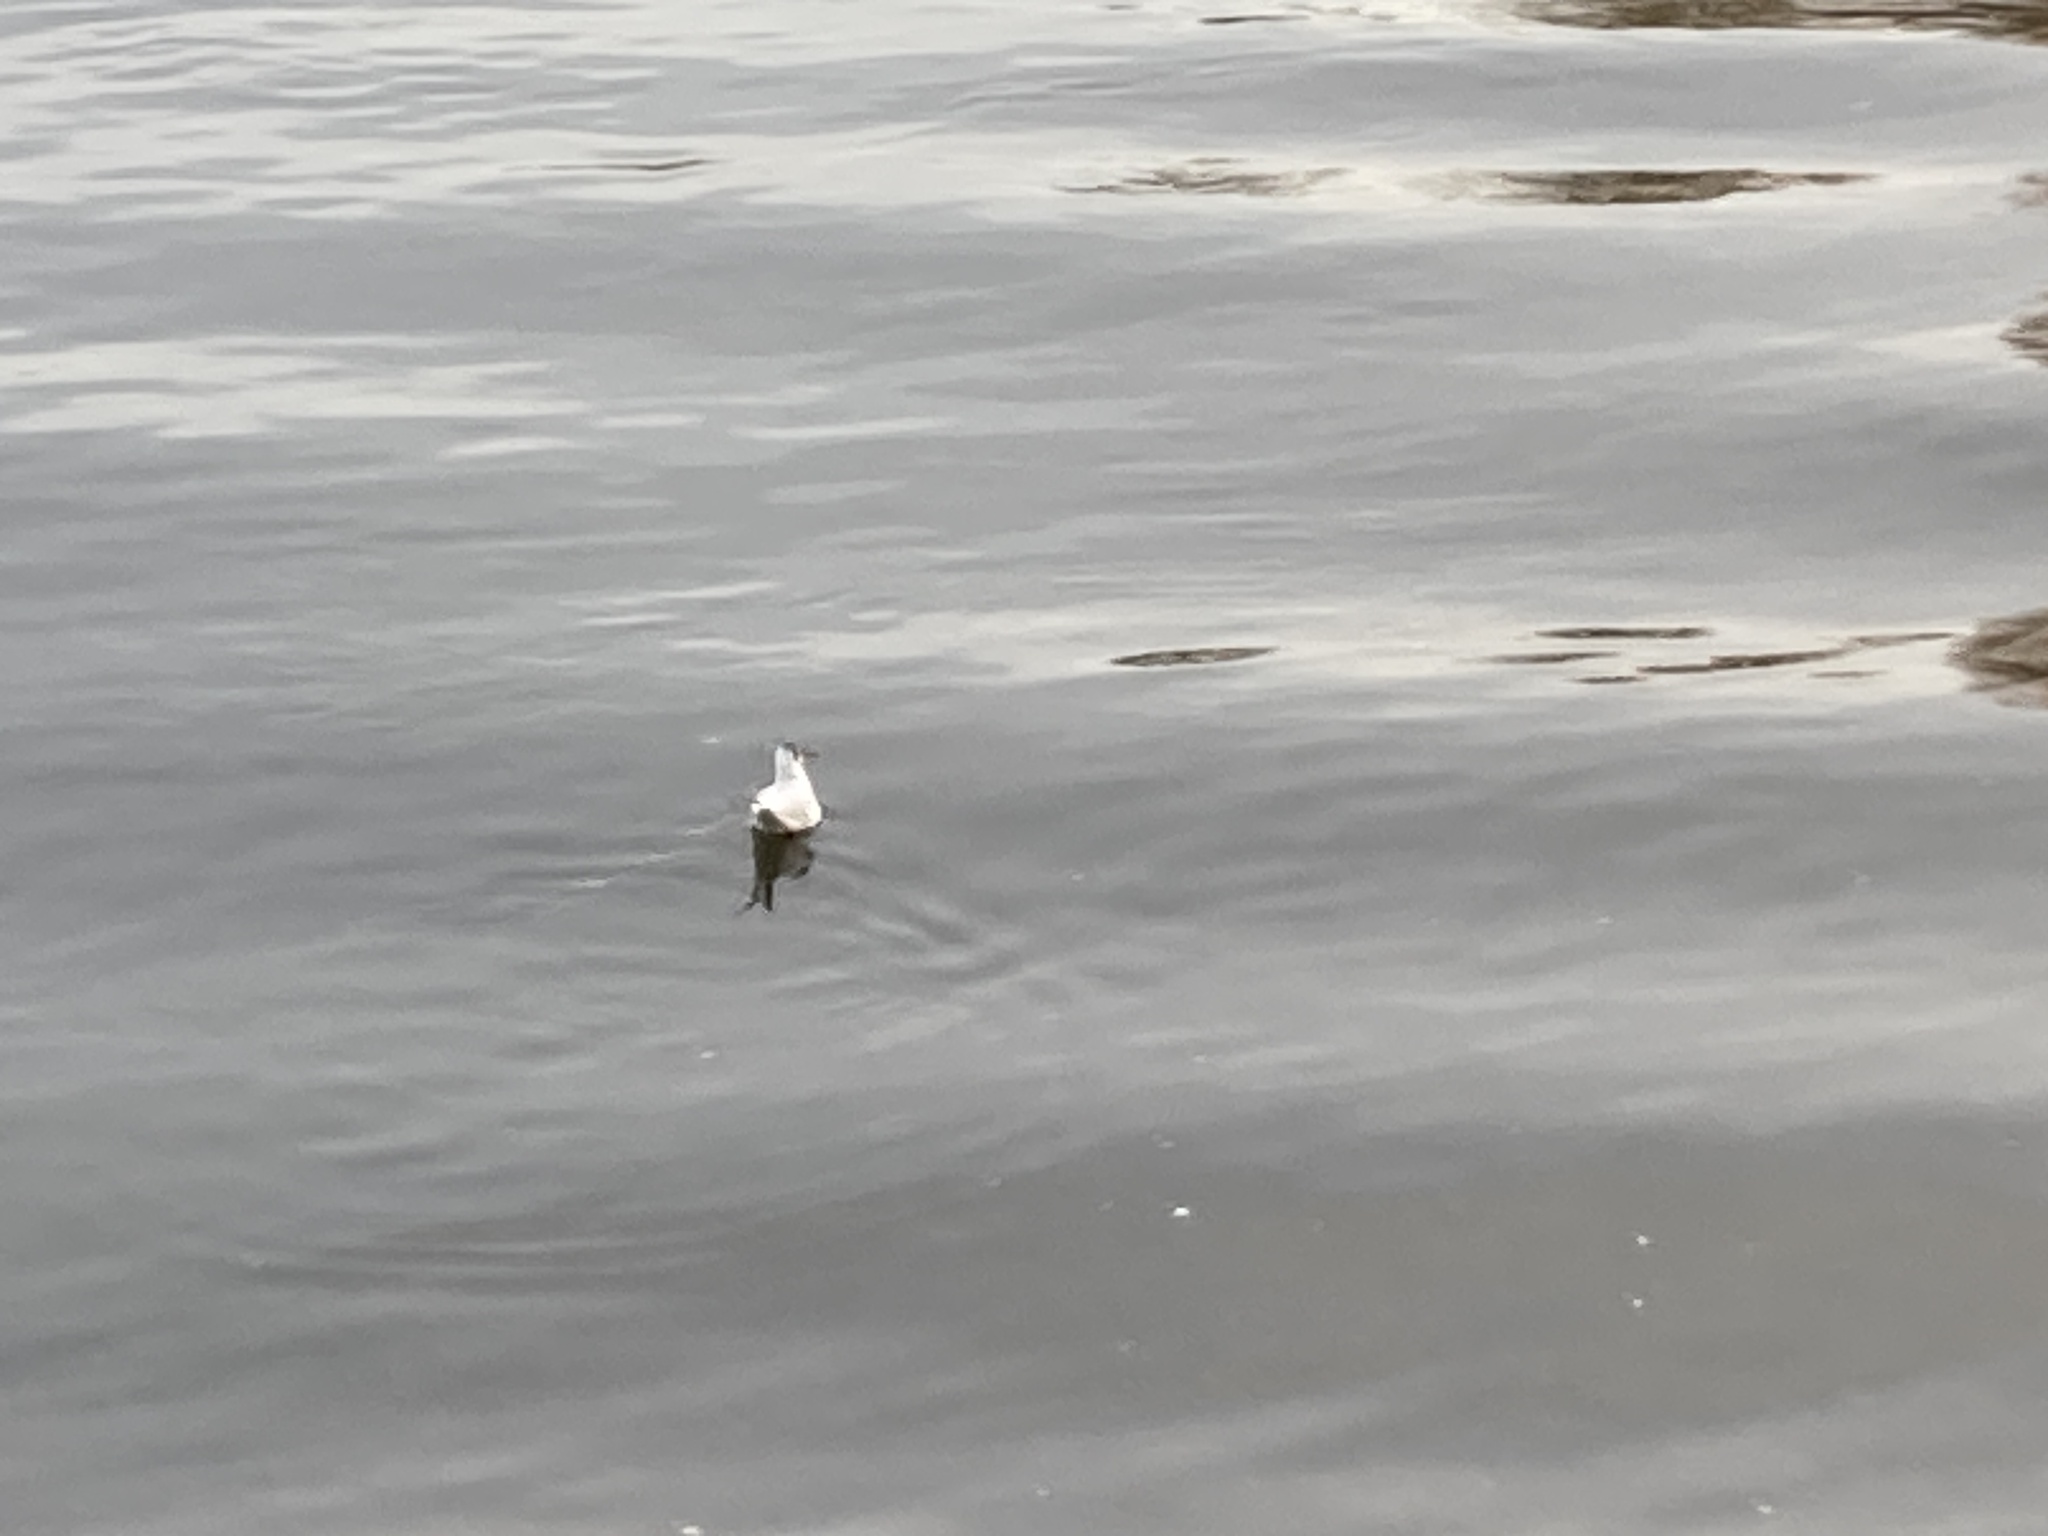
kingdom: Animalia
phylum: Chordata
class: Aves
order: Charadriiformes
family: Laridae
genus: Chroicocephalus
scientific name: Chroicocephalus ridibundus
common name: Black-headed gull
